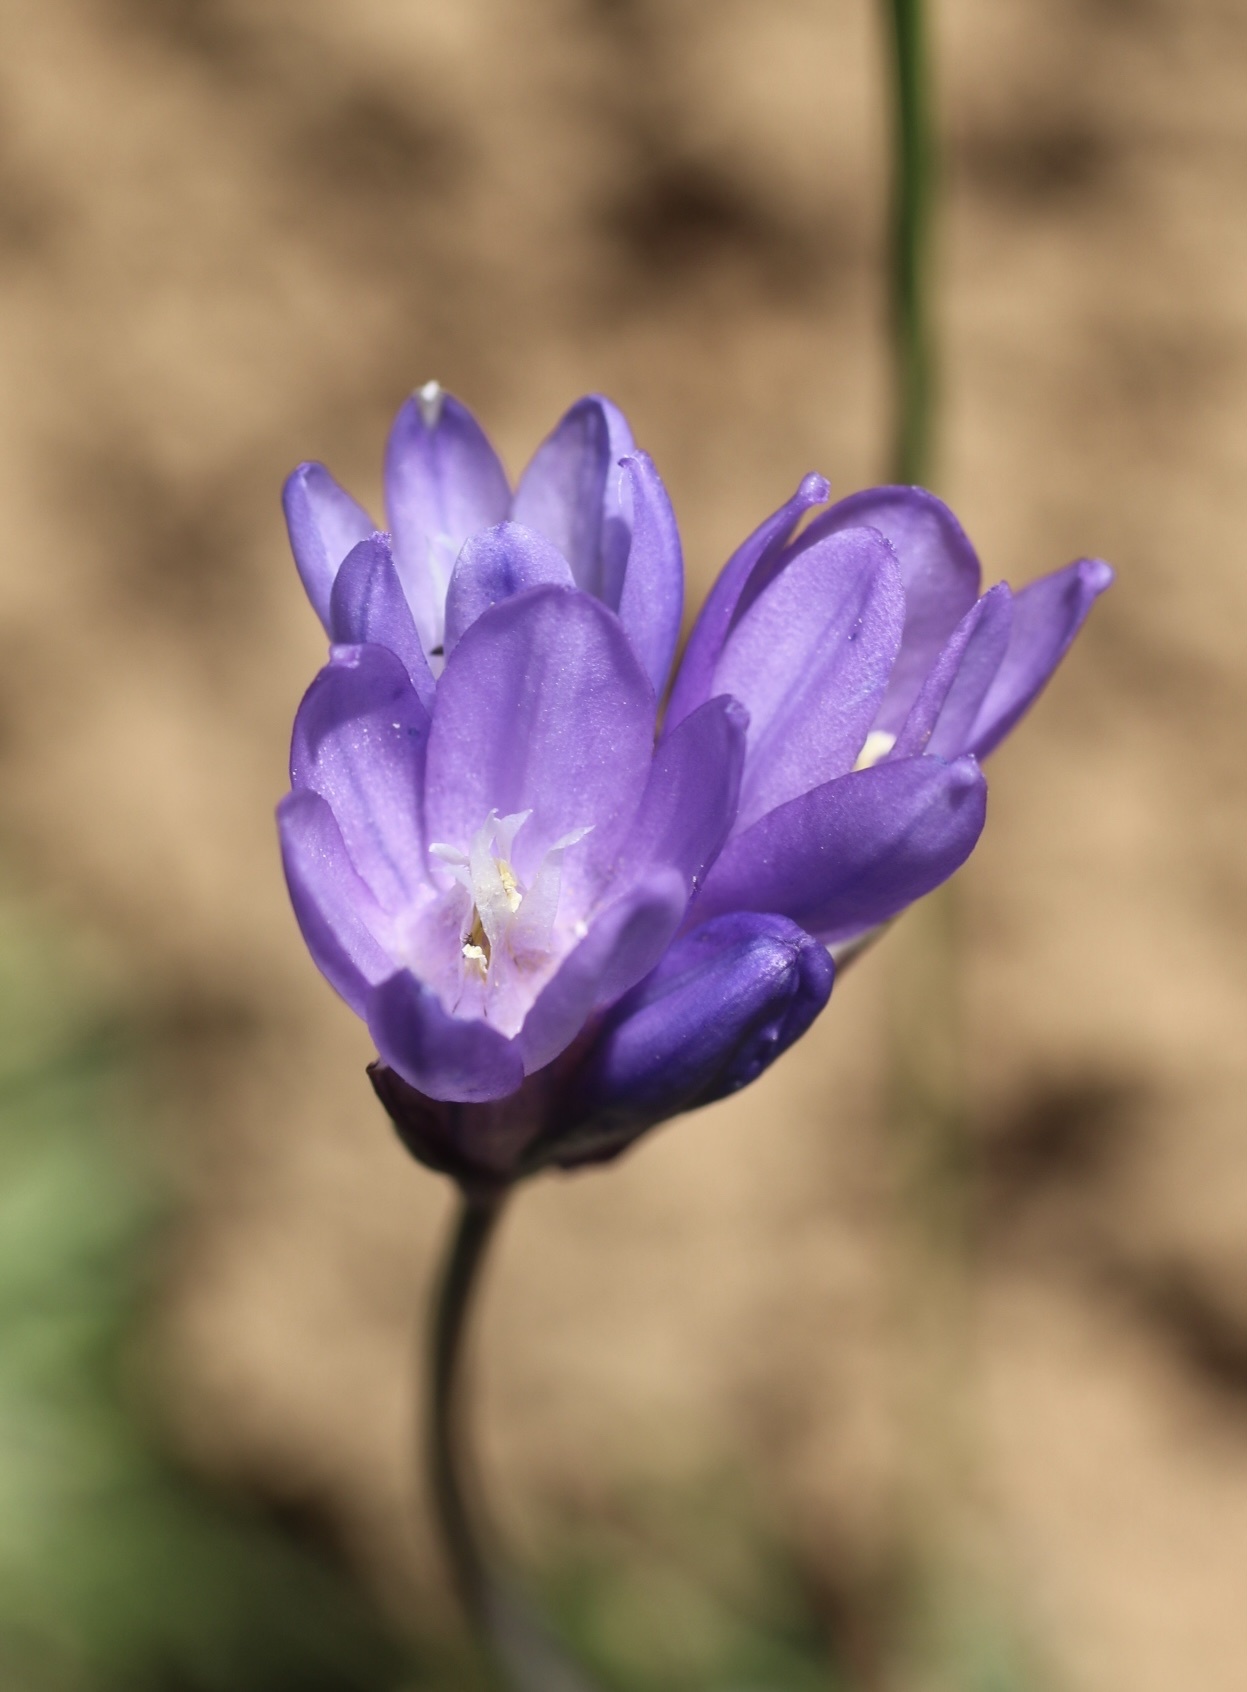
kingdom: Plantae
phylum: Tracheophyta
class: Liliopsida
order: Asparagales
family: Asparagaceae
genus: Dipterostemon
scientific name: Dipterostemon capitatus
